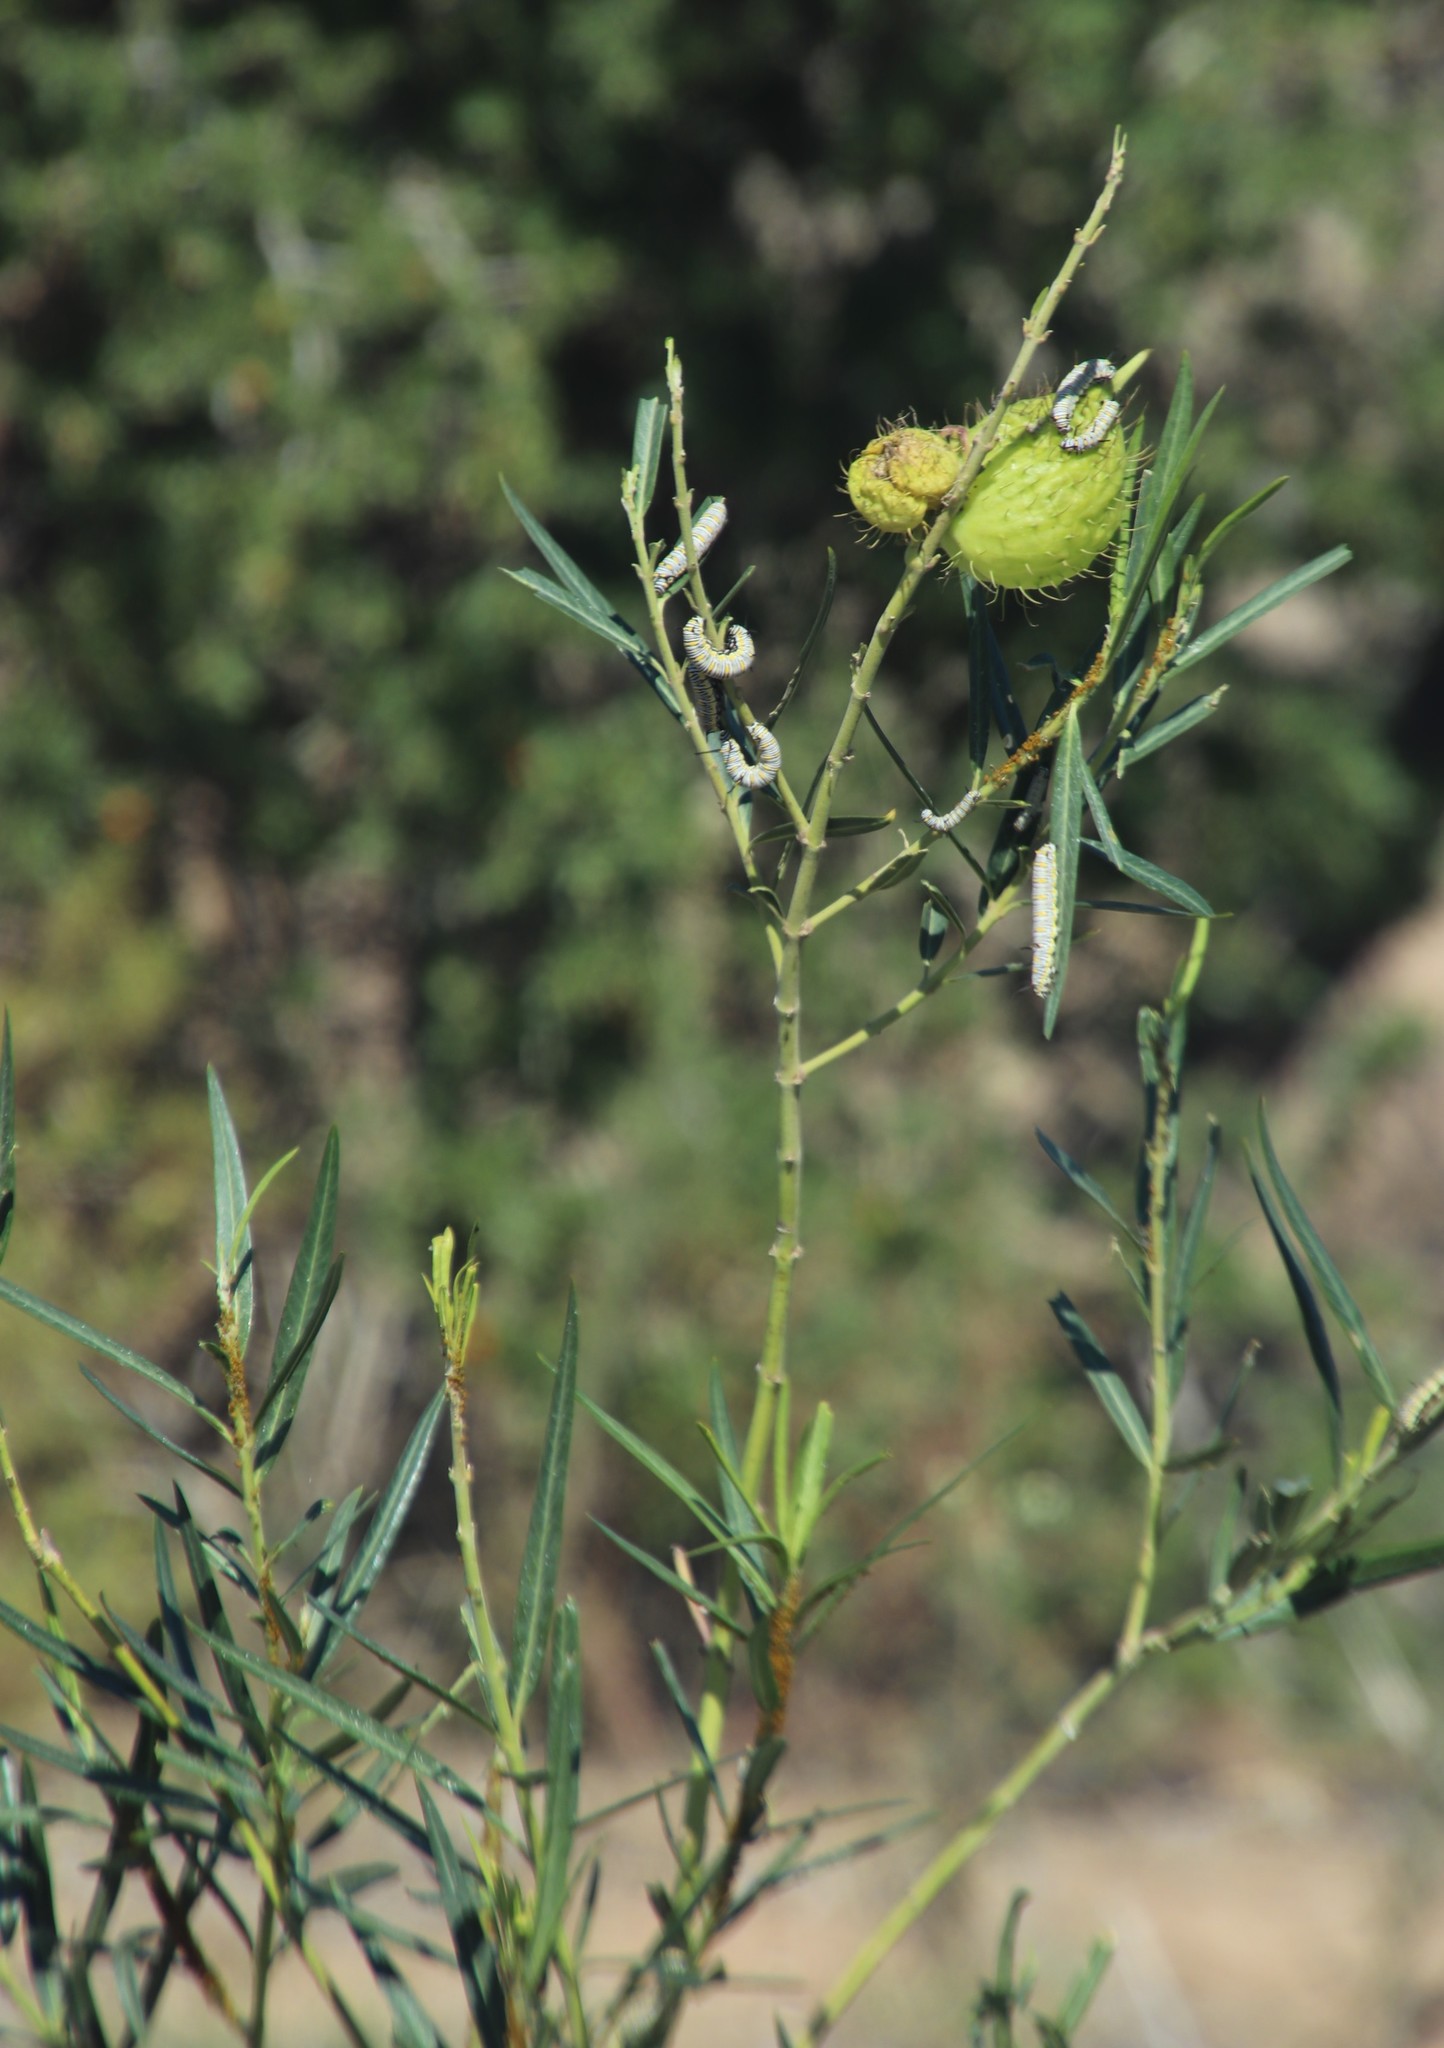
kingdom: Plantae
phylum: Tracheophyta
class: Magnoliopsida
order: Gentianales
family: Apocynaceae
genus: Gomphocarpus
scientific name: Gomphocarpus physocarpus
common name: Balloon cotton bush
